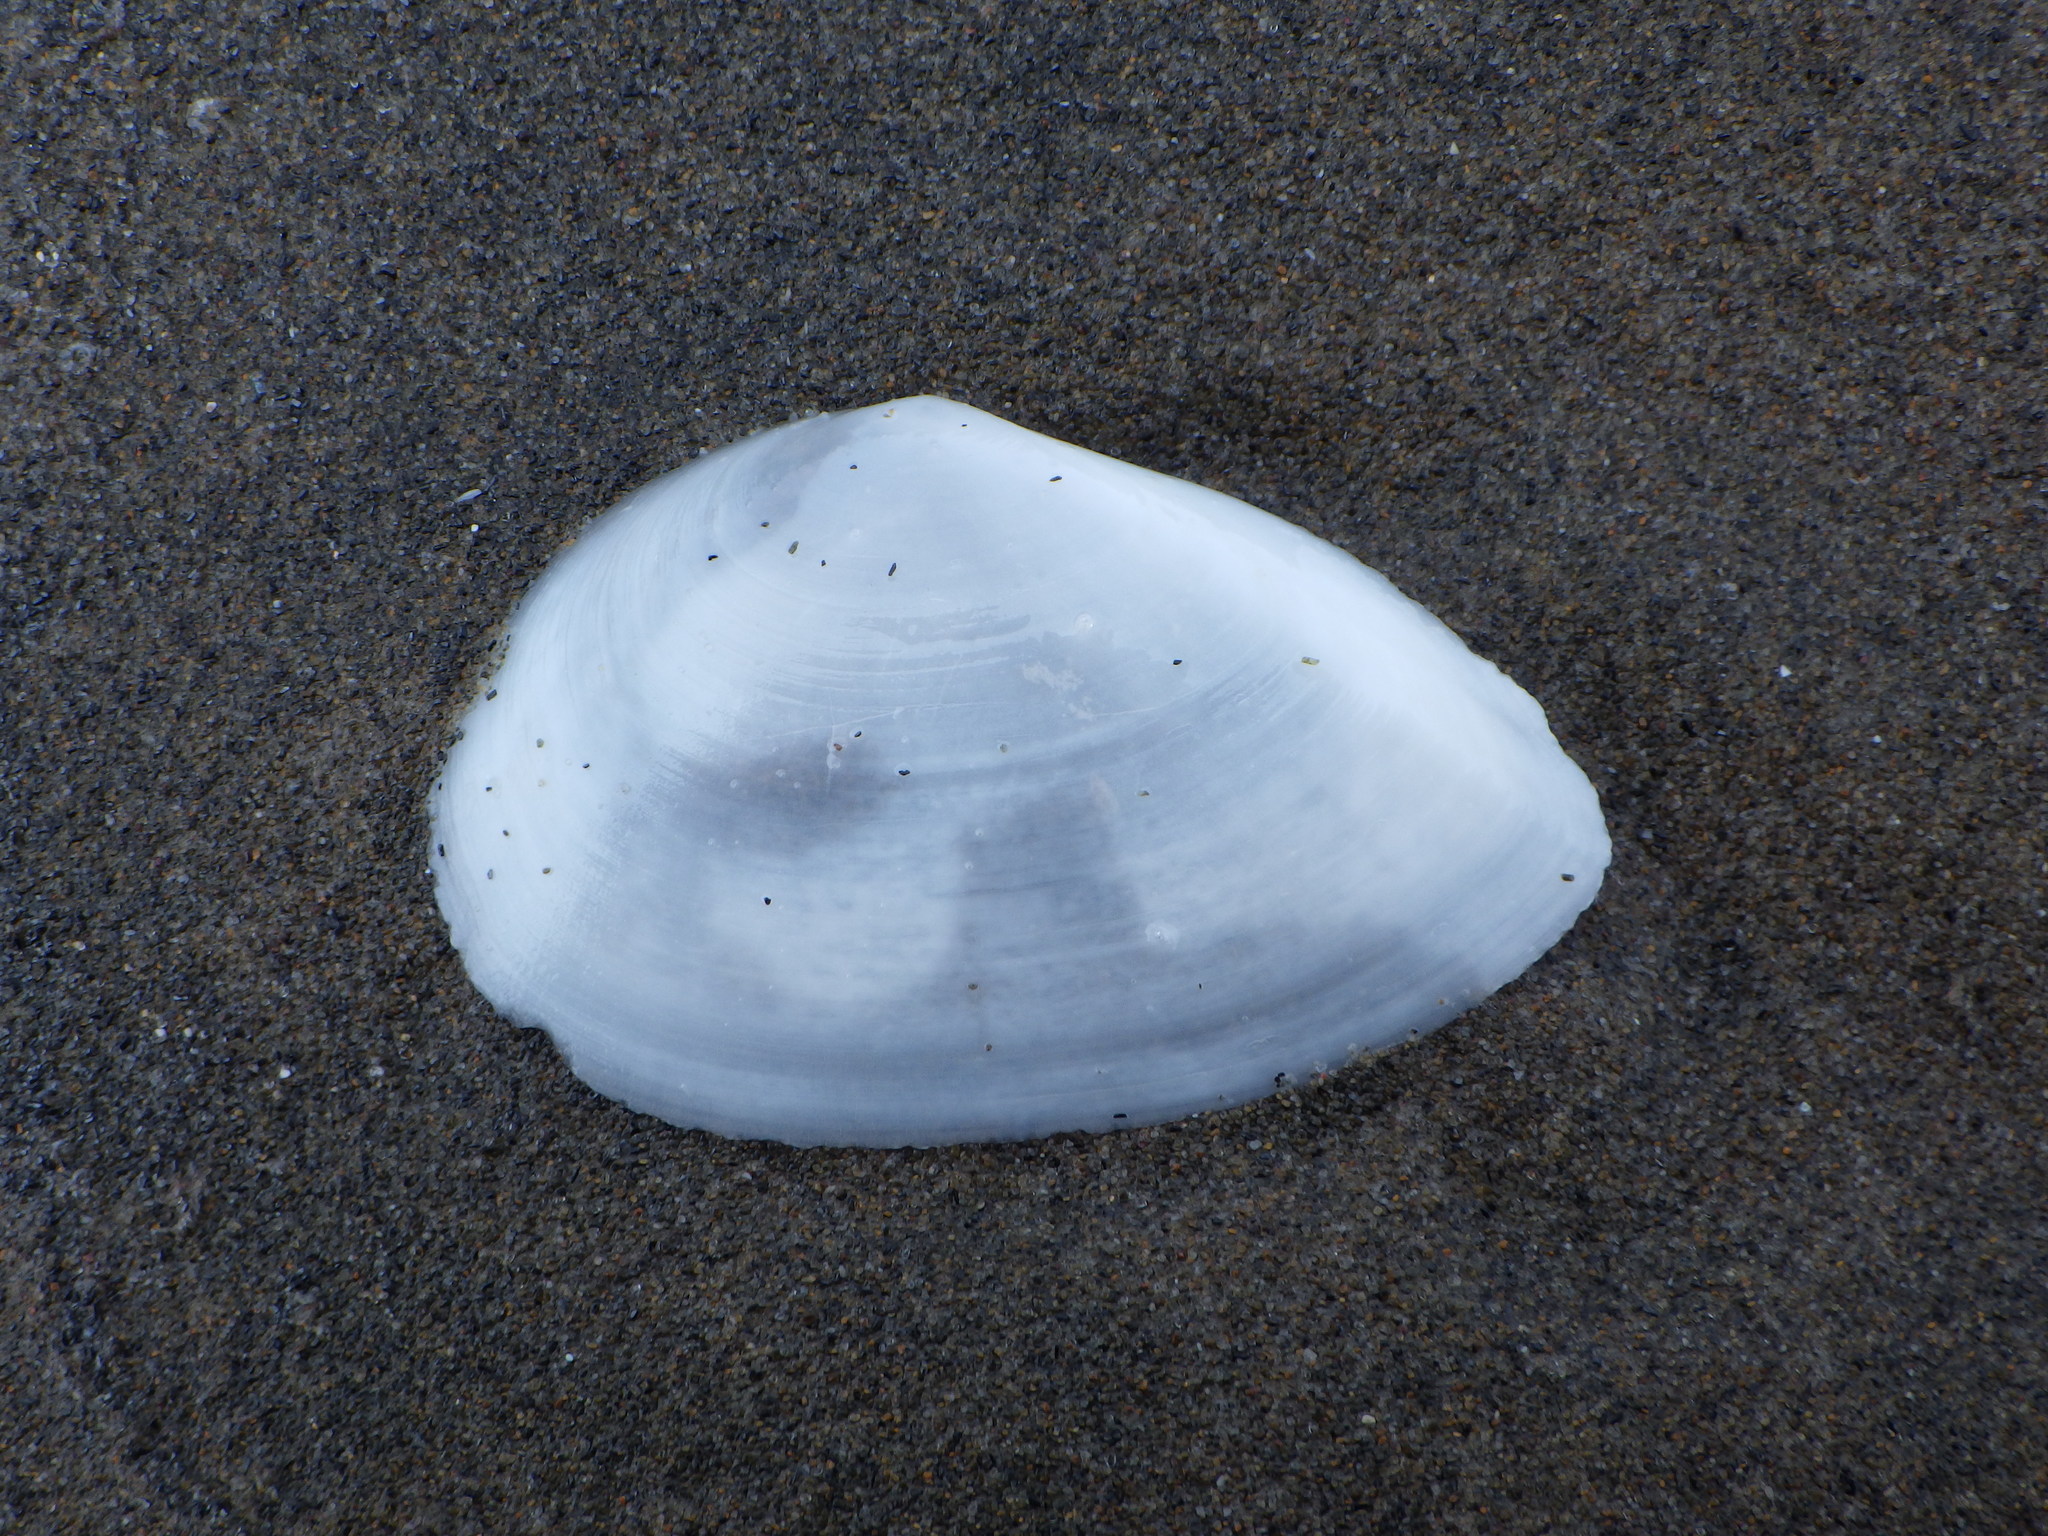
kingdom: Animalia
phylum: Mollusca
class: Bivalvia
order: Cardiida
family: Tellinidae
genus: Bartschicoma
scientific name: Bartschicoma gaimardi
